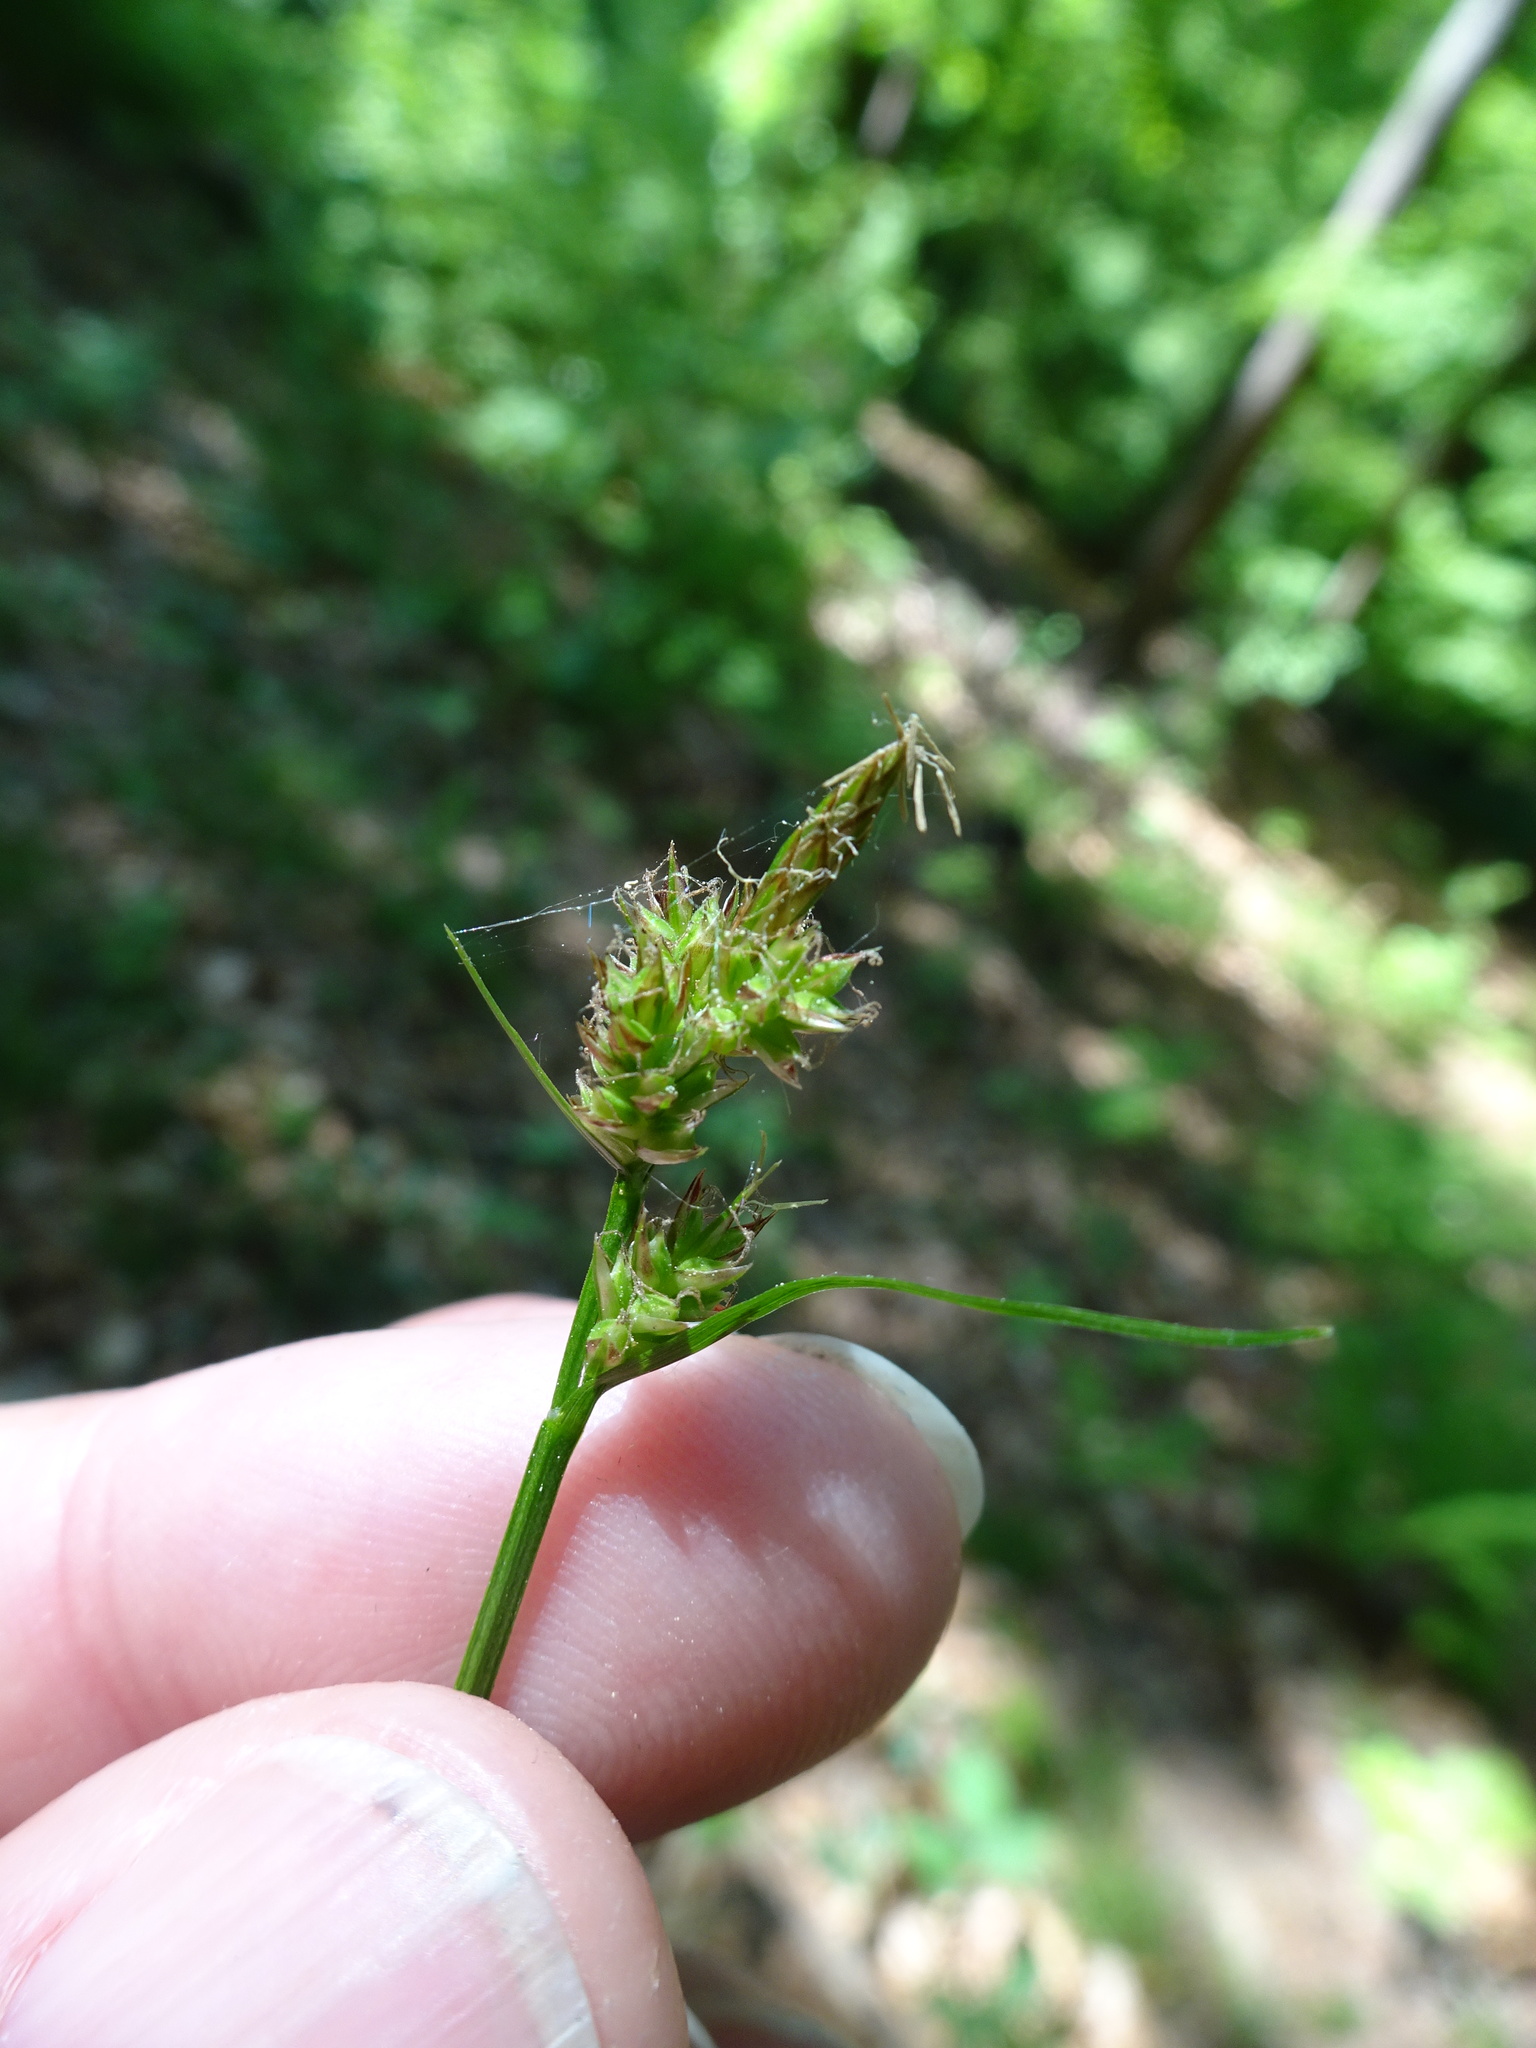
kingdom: Plantae
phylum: Tracheophyta
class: Liliopsida
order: Poales
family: Cyperaceae
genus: Carex
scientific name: Carex pilulifera
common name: Pill sedge
